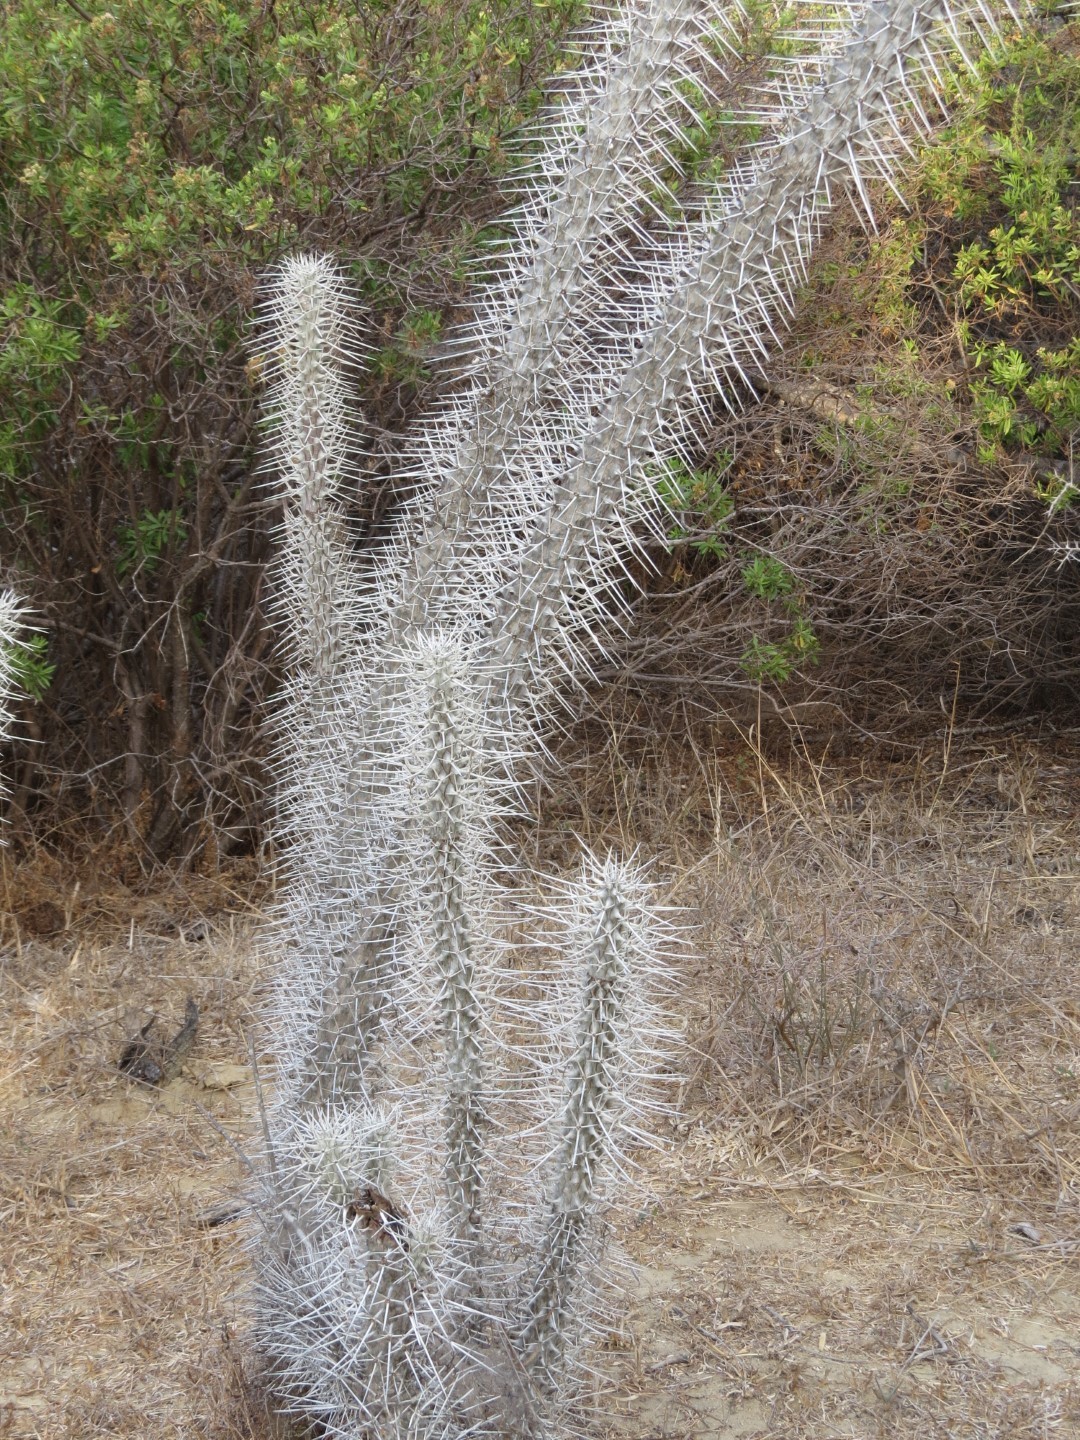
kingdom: Plantae
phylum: Tracheophyta
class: Magnoliopsida
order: Caryophyllales
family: Didiereaceae
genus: Didierea
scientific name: Didierea madagascariensis
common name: Octopus-tree
